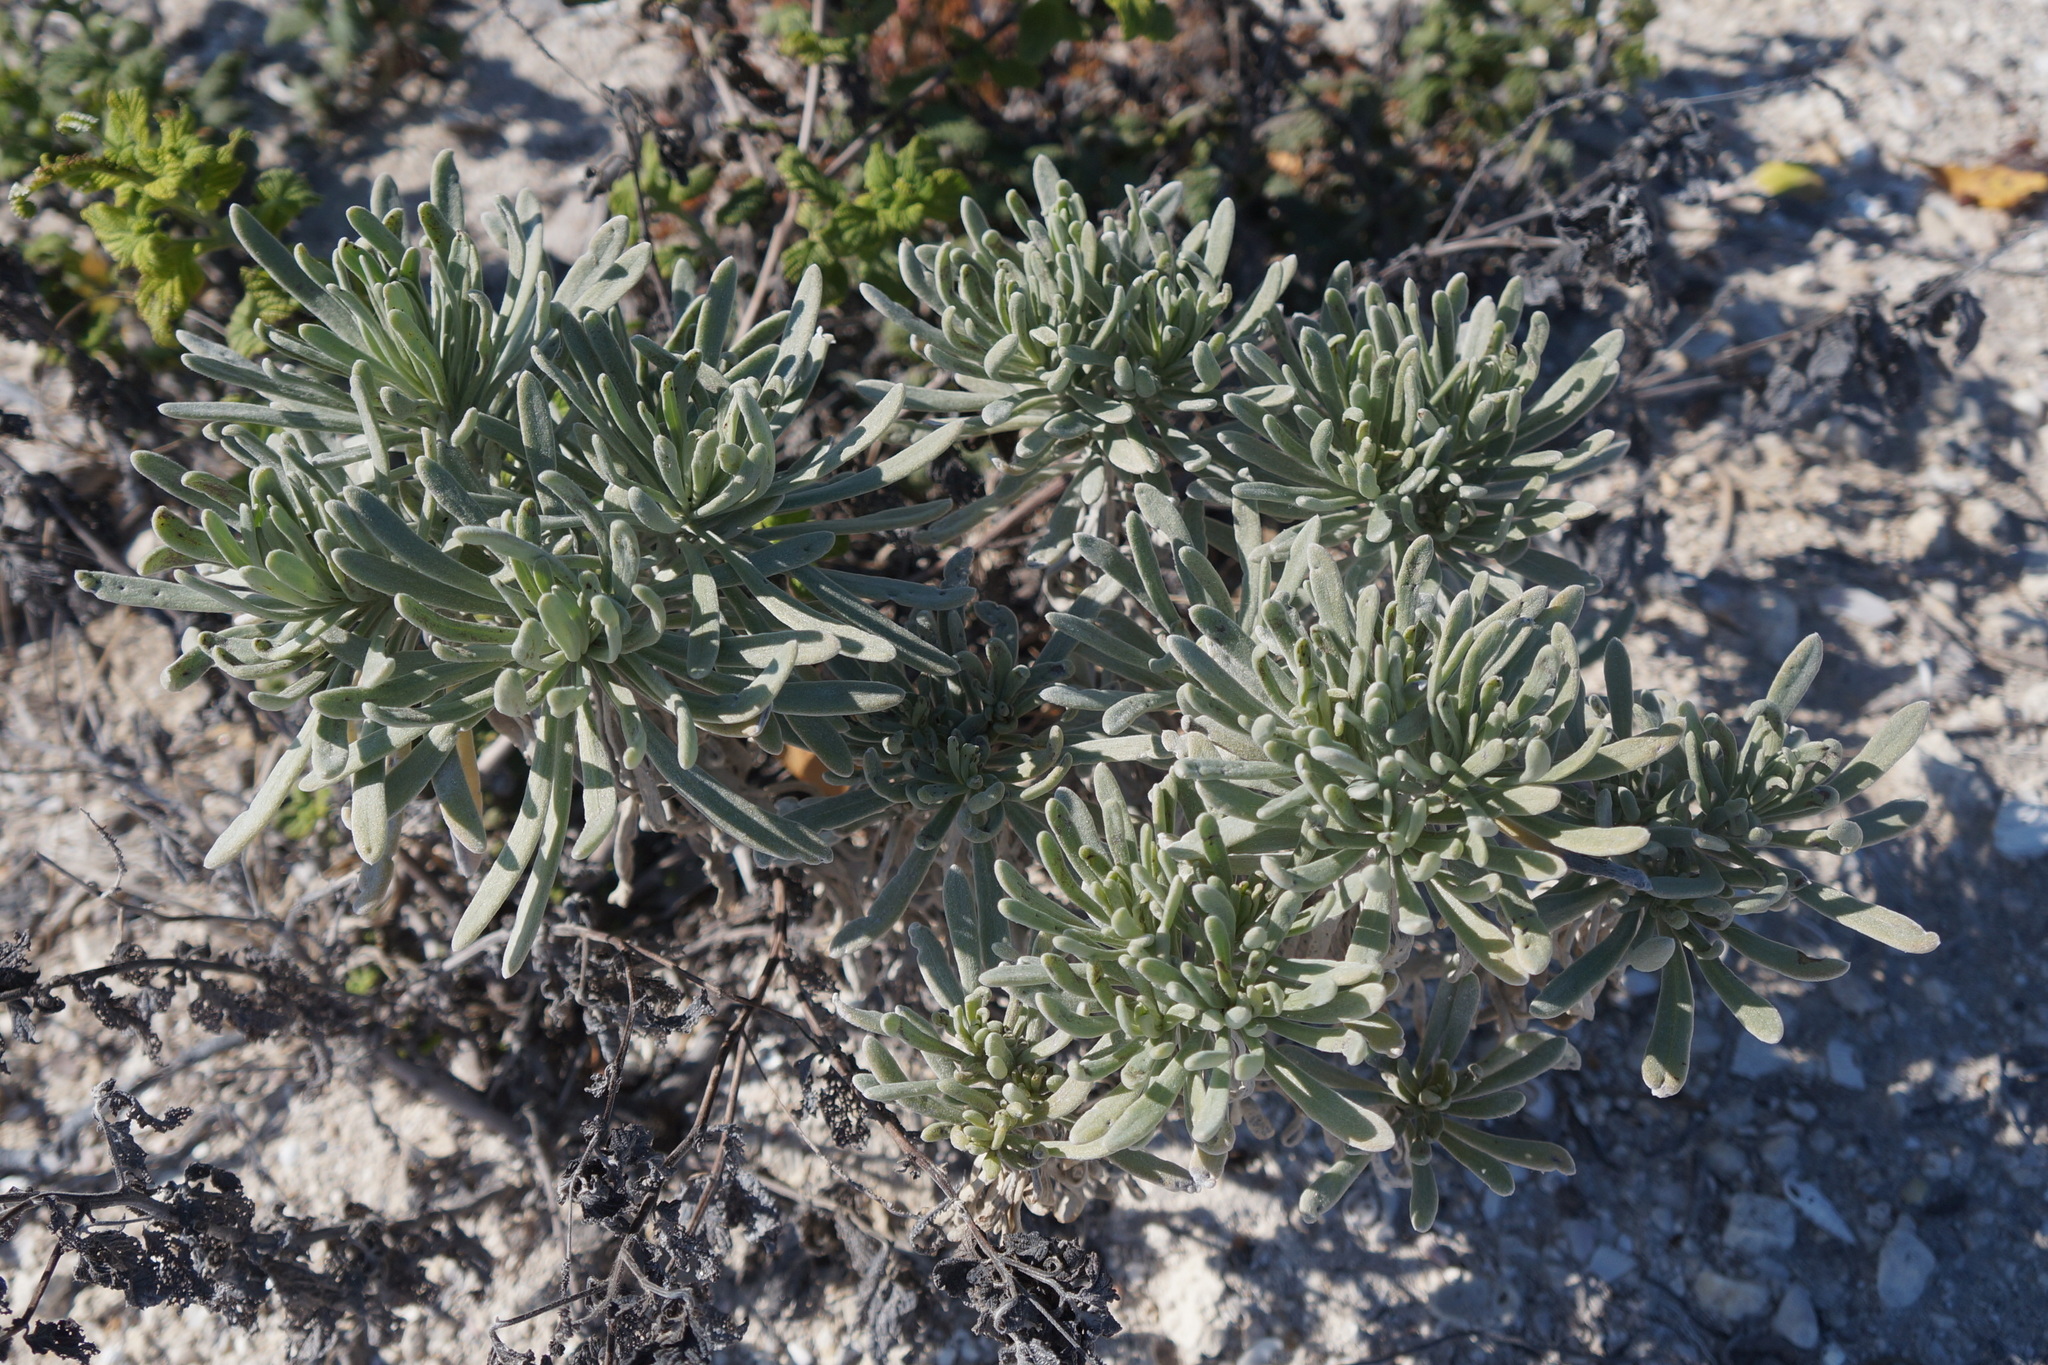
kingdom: Plantae
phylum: Tracheophyta
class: Magnoliopsida
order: Boraginales
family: Heliotropiaceae
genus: Tournefortia
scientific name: Tournefortia gnaphalodes
